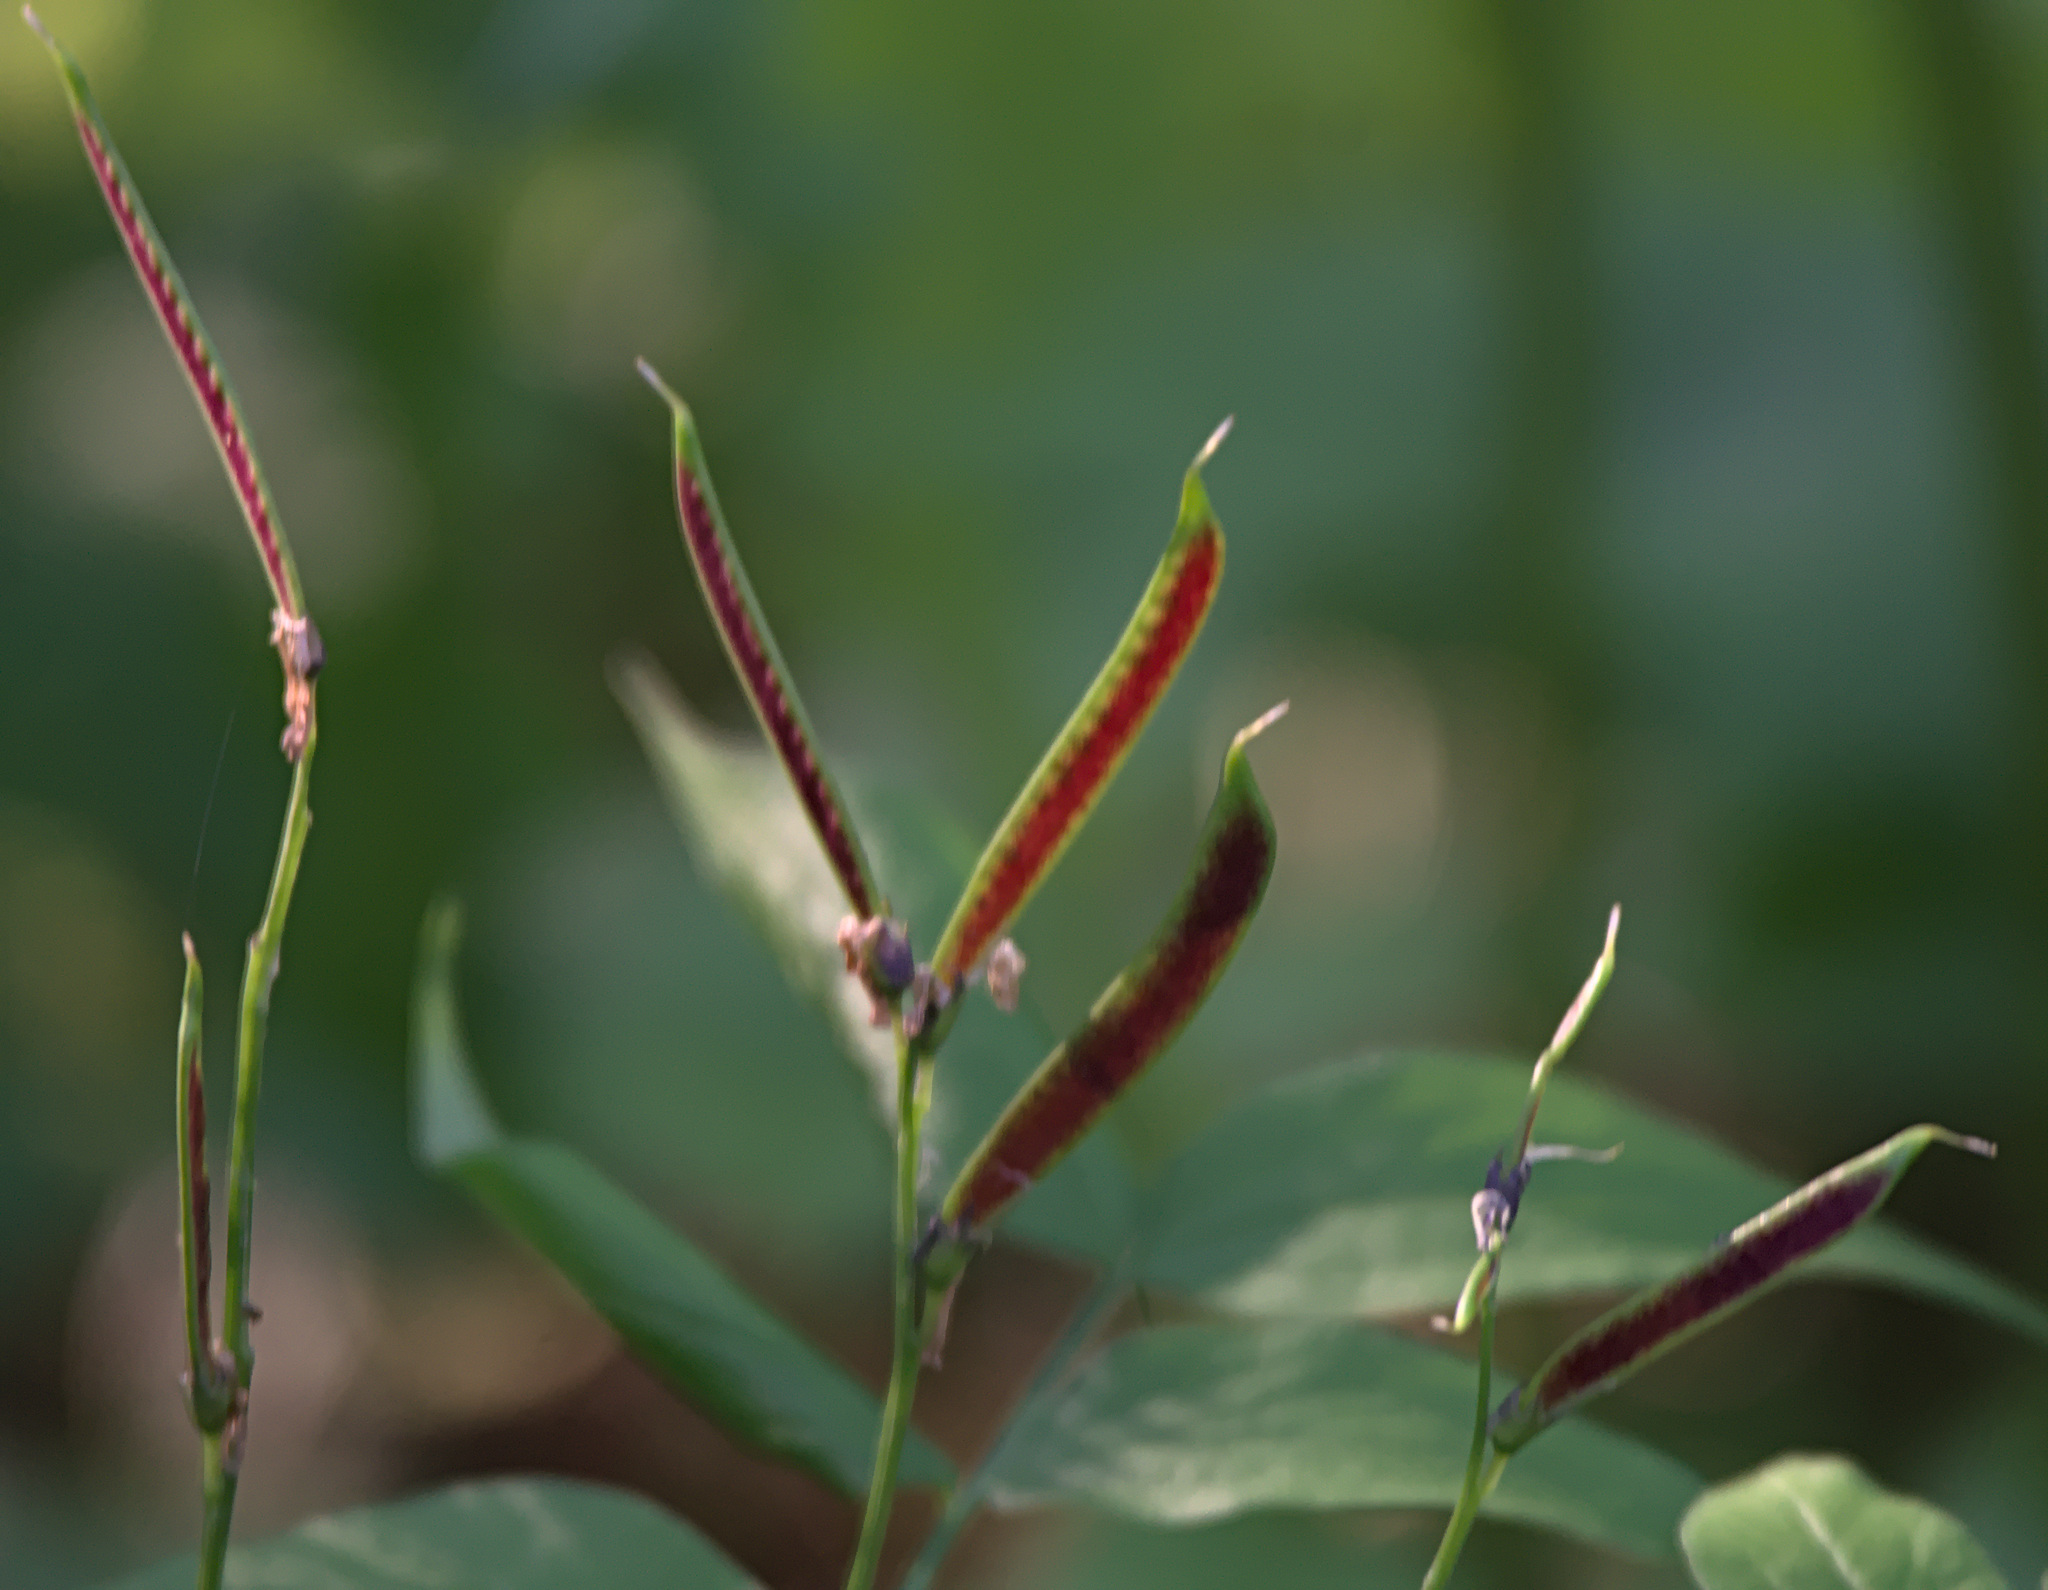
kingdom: Plantae
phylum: Tracheophyta
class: Magnoliopsida
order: Fabales
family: Fabaceae
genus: Lathyrus
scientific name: Lathyrus vernus
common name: Spring pea
